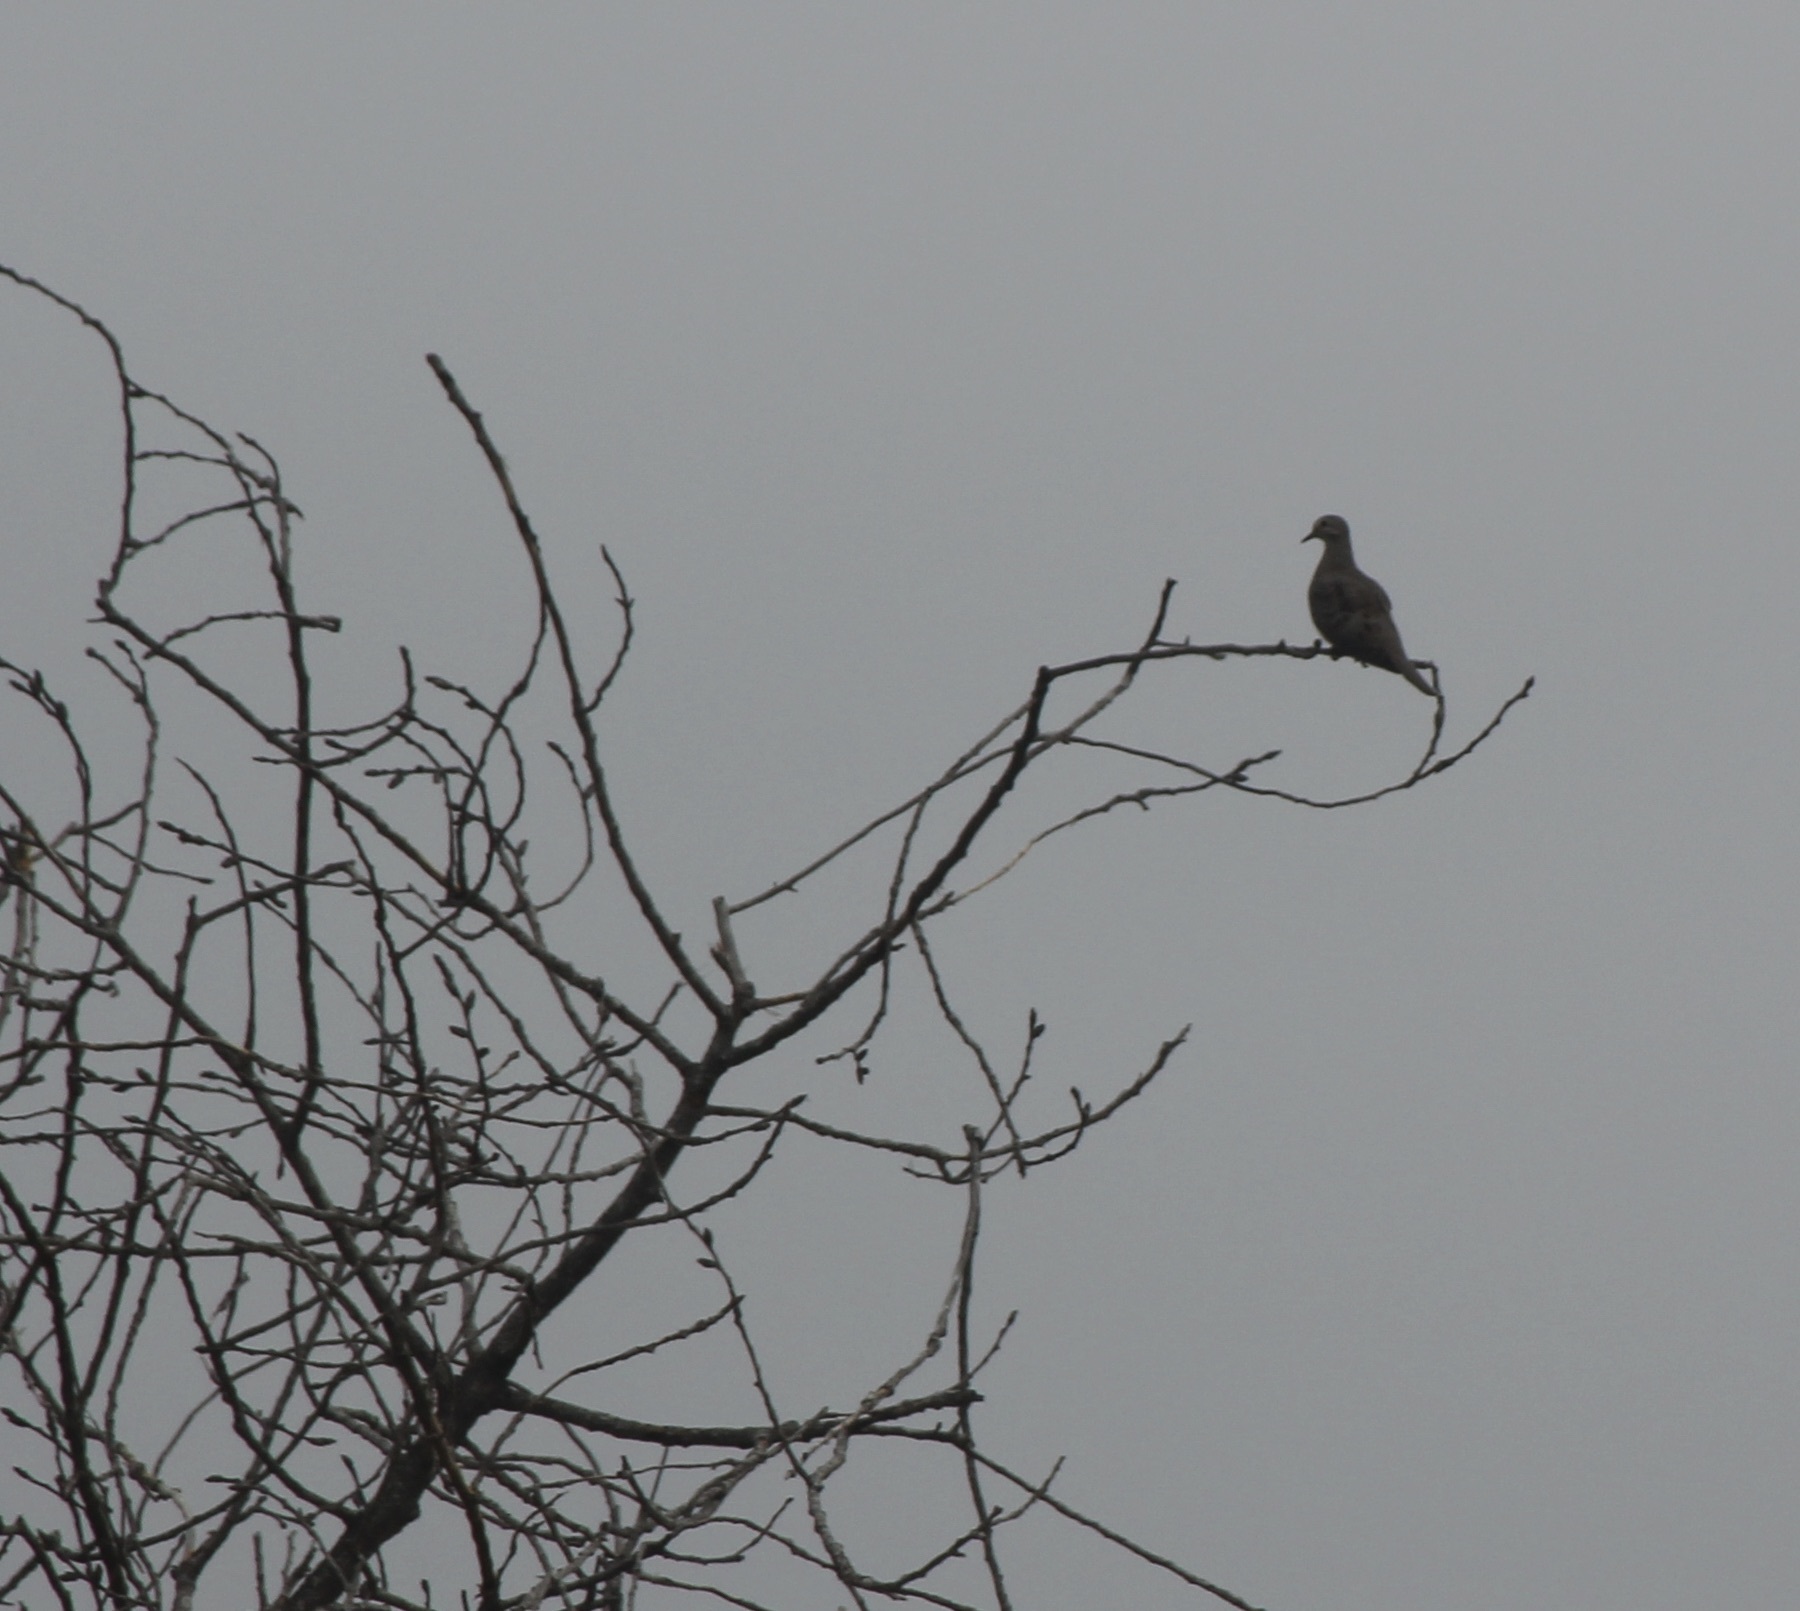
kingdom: Animalia
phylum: Chordata
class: Aves
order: Columbiformes
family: Columbidae
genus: Zenaida
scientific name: Zenaida macroura
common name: Mourning dove
